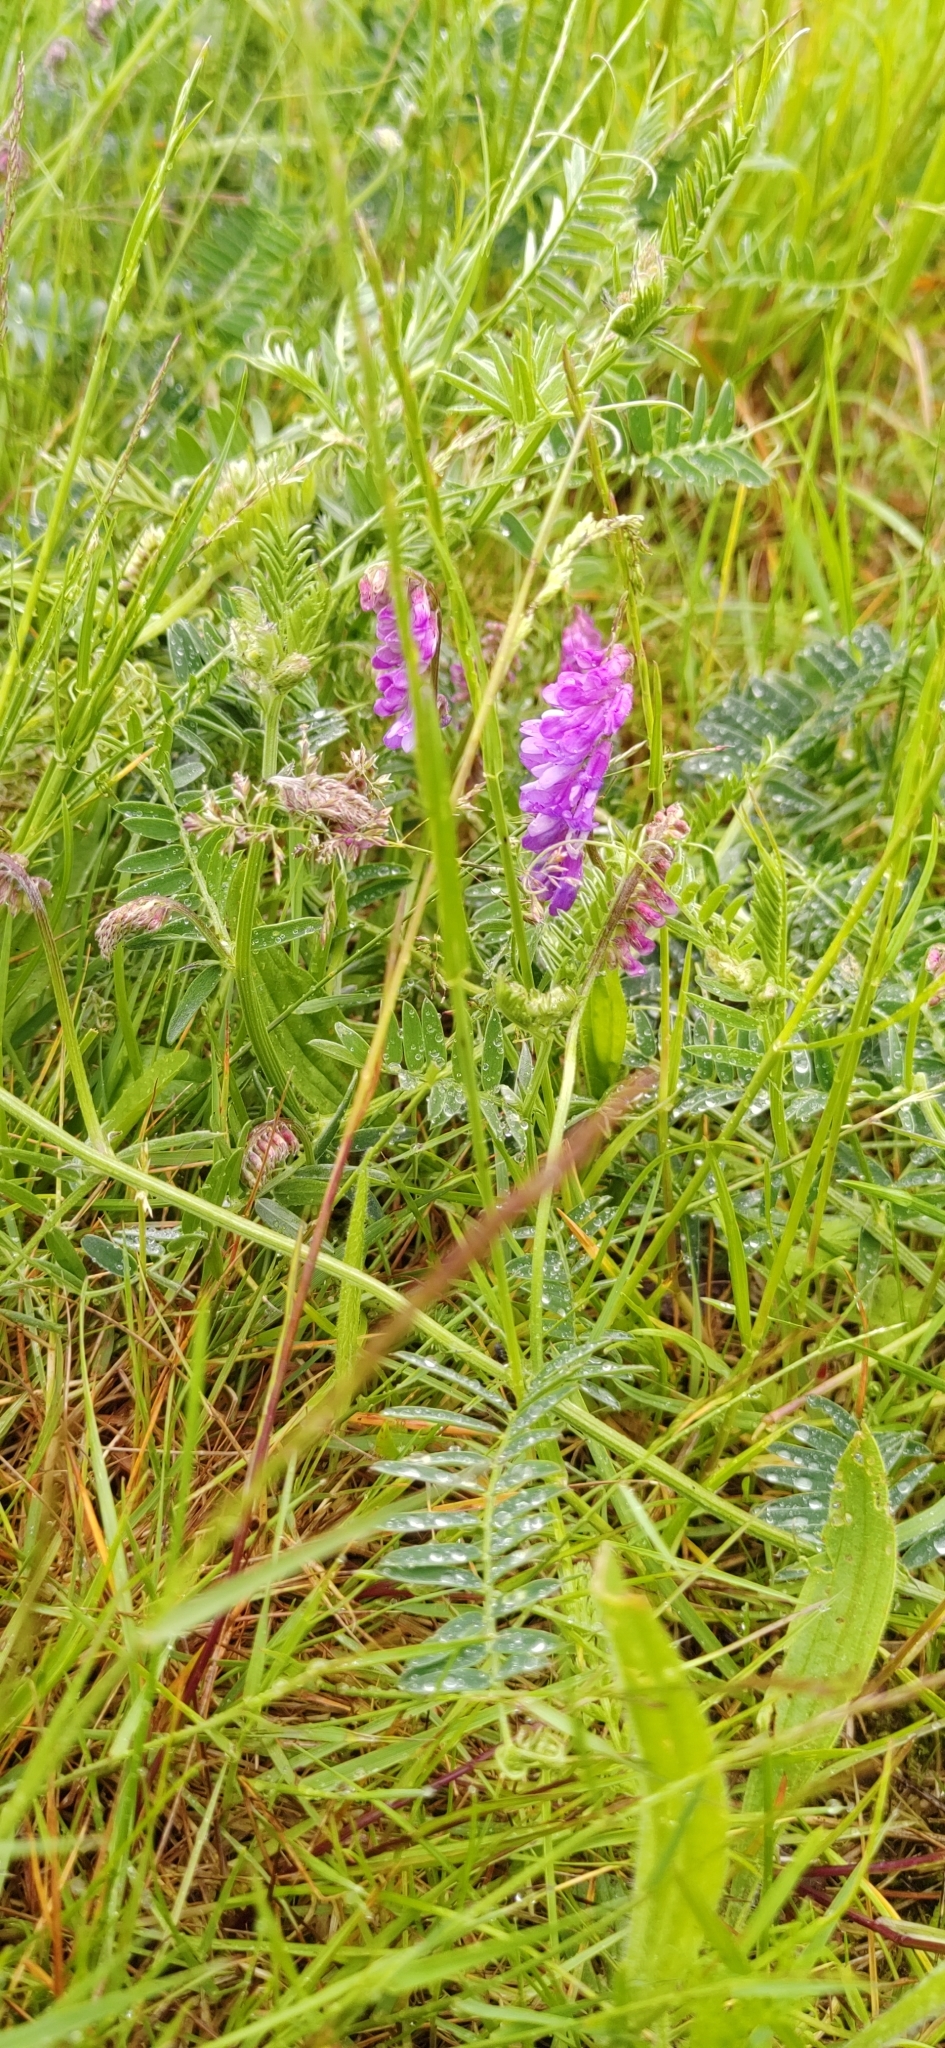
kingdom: Plantae
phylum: Tracheophyta
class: Magnoliopsida
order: Fabales
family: Fabaceae
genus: Vicia
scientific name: Vicia cracca
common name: Bird vetch
